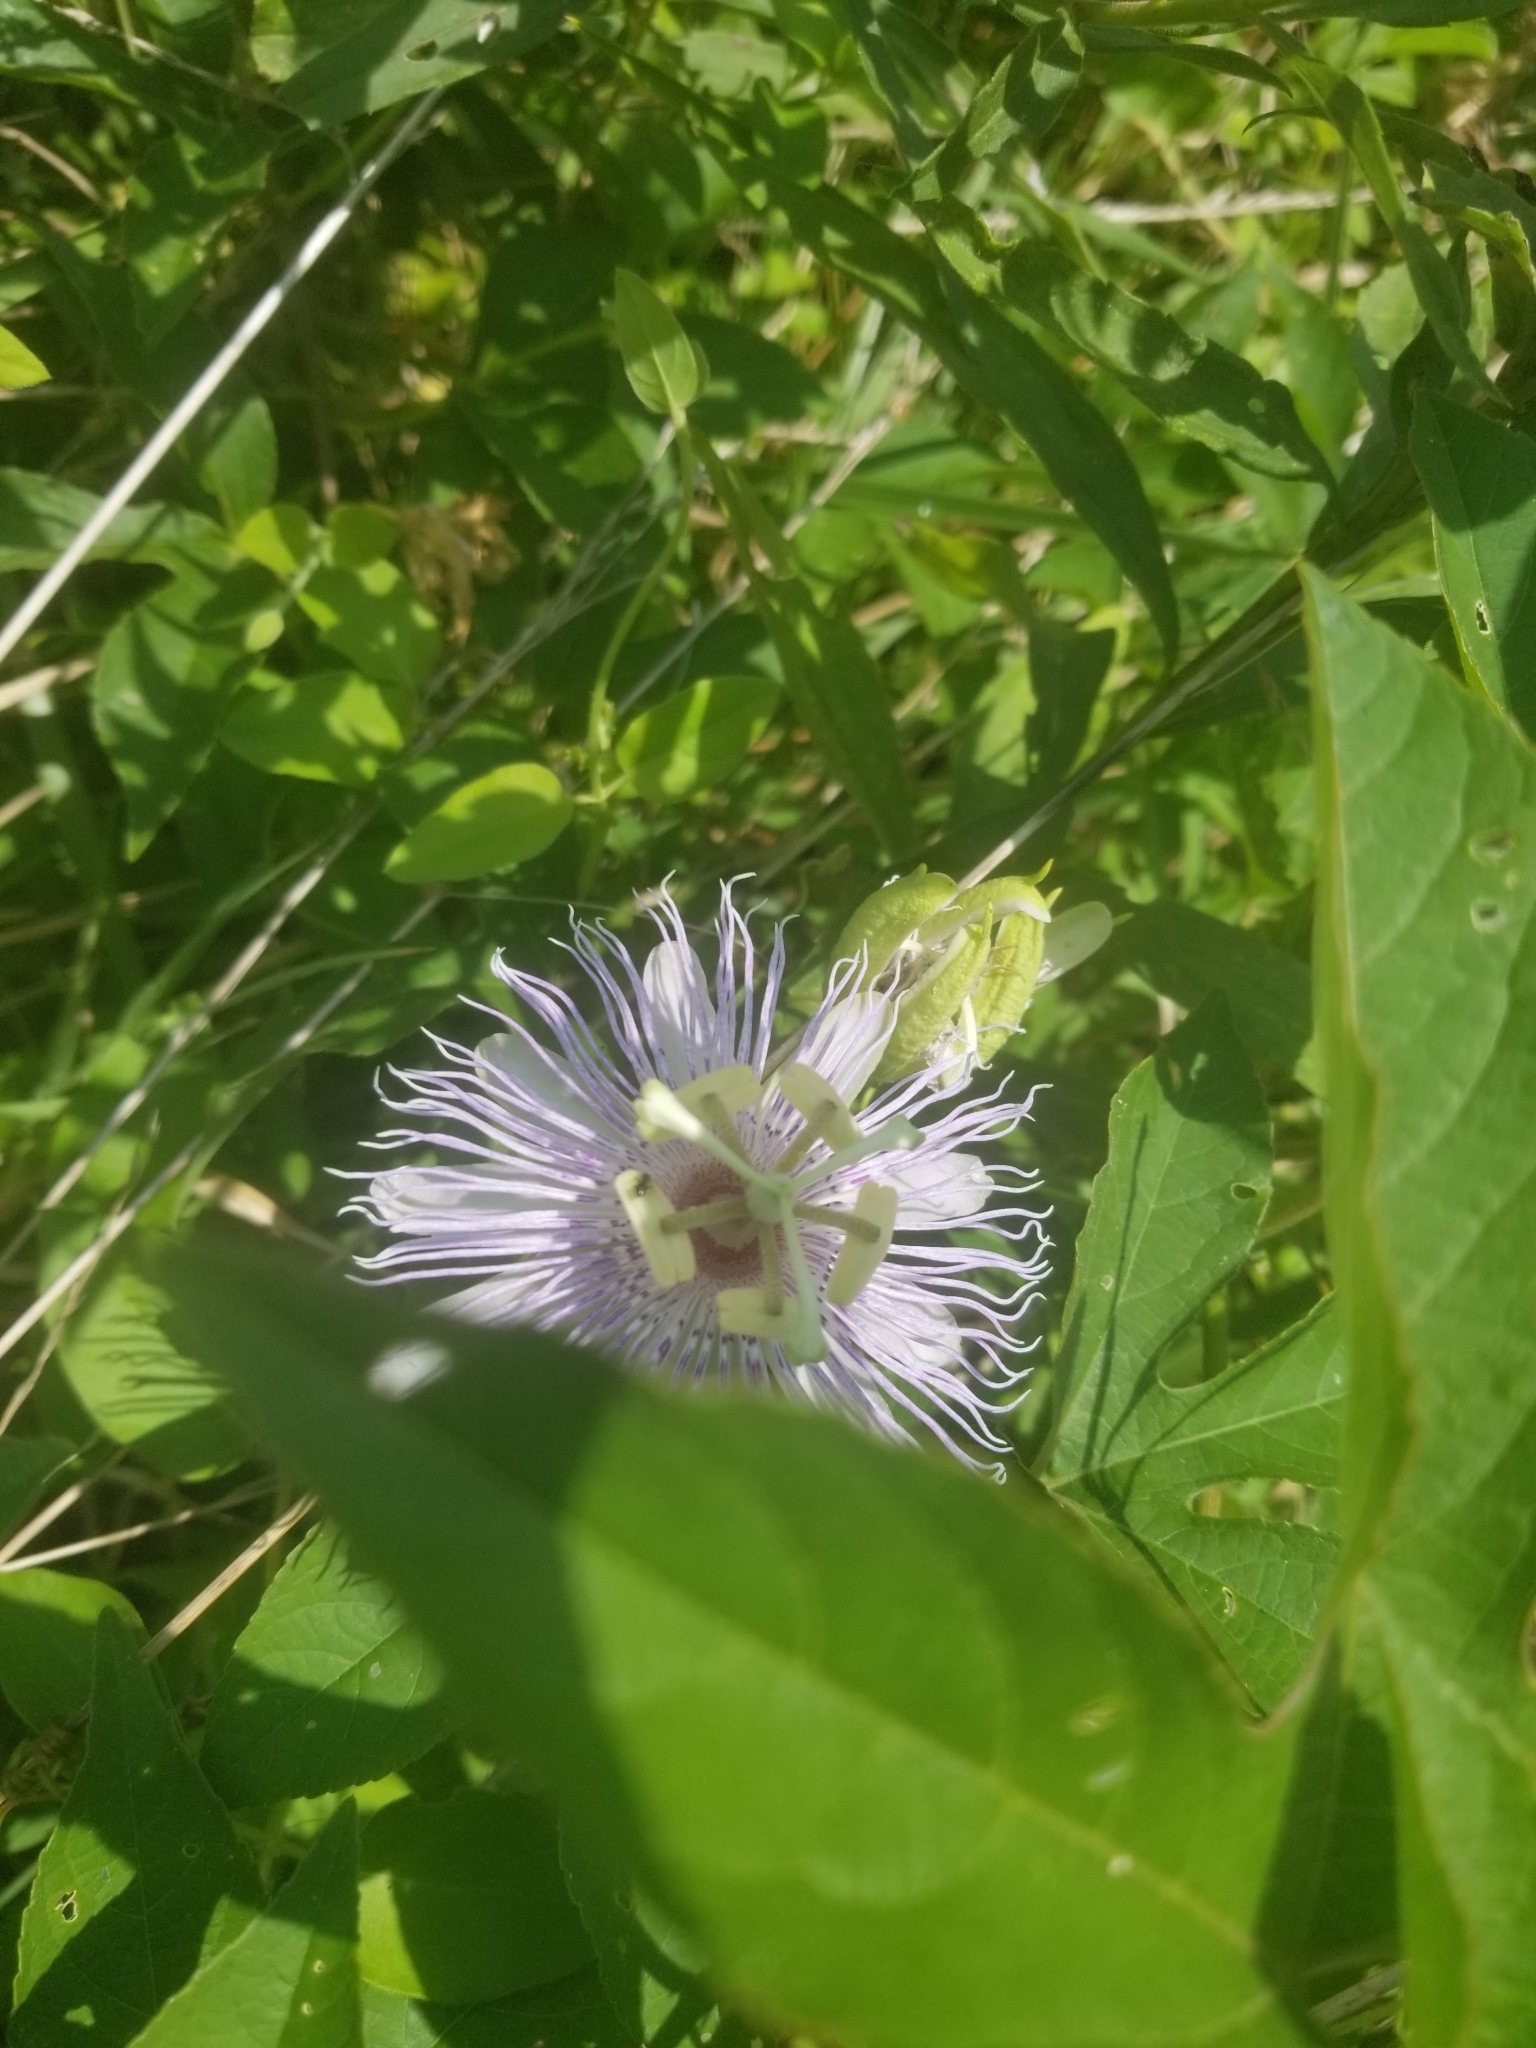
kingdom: Plantae
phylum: Tracheophyta
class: Magnoliopsida
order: Malpighiales
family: Passifloraceae
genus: Passiflora
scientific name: Passiflora incarnata
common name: Apricot-vine
